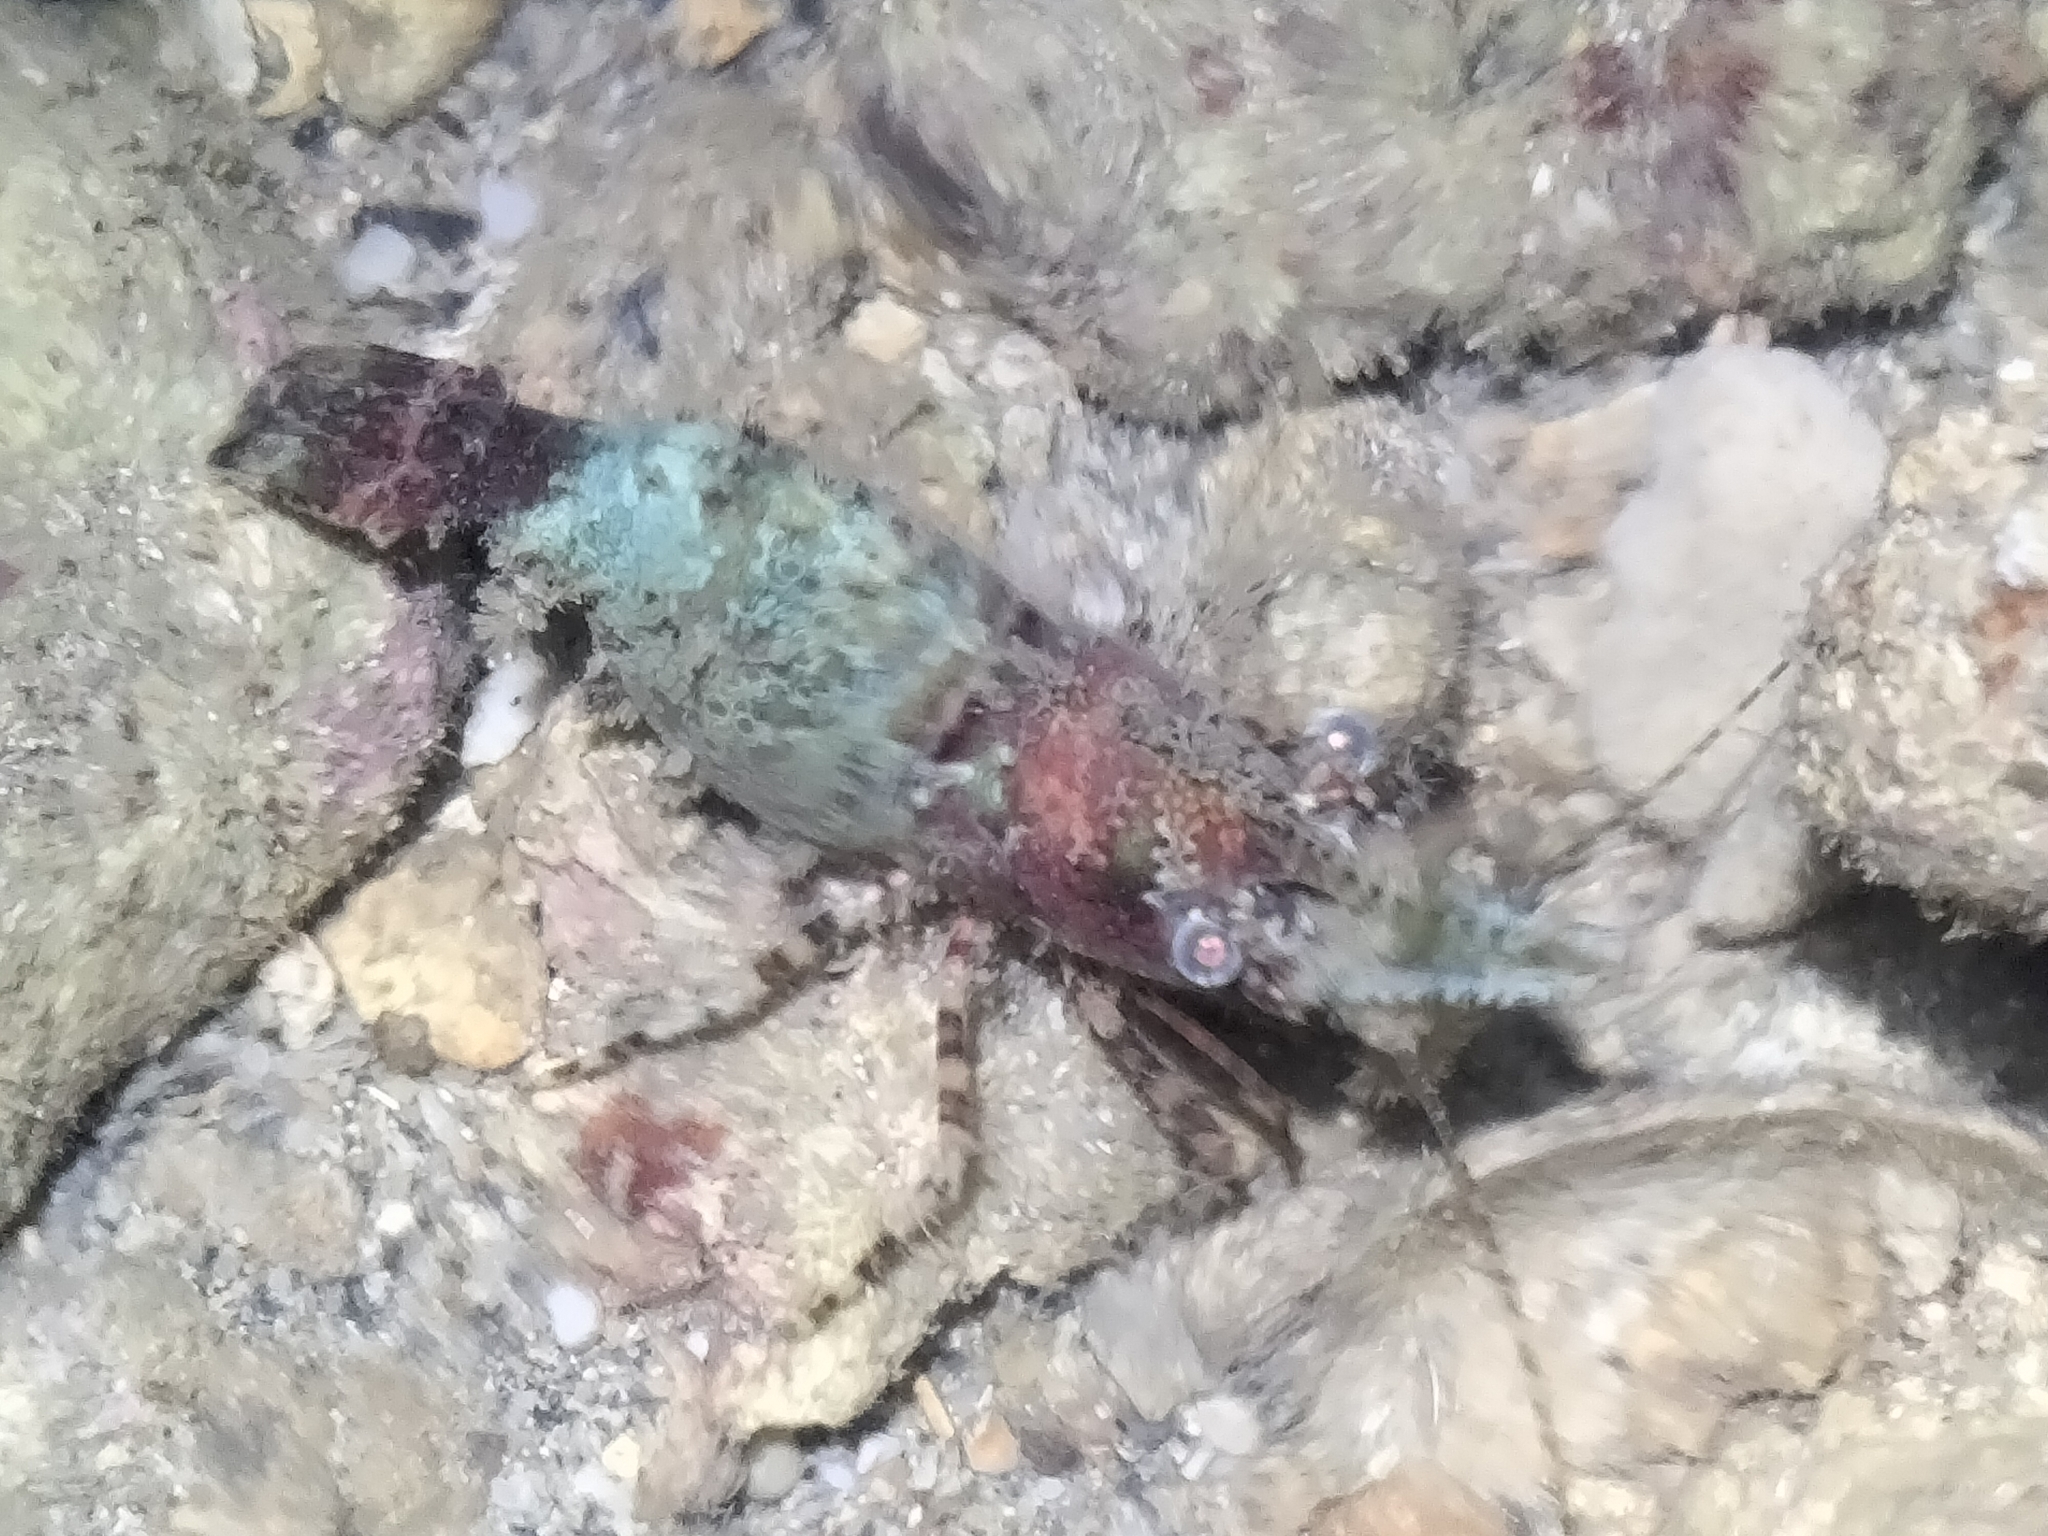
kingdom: Animalia
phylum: Arthropoda
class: Malacostraca
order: Decapoda
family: Hippolytidae
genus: Saron
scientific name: Saron marmoratus
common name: Common marble shrimp
